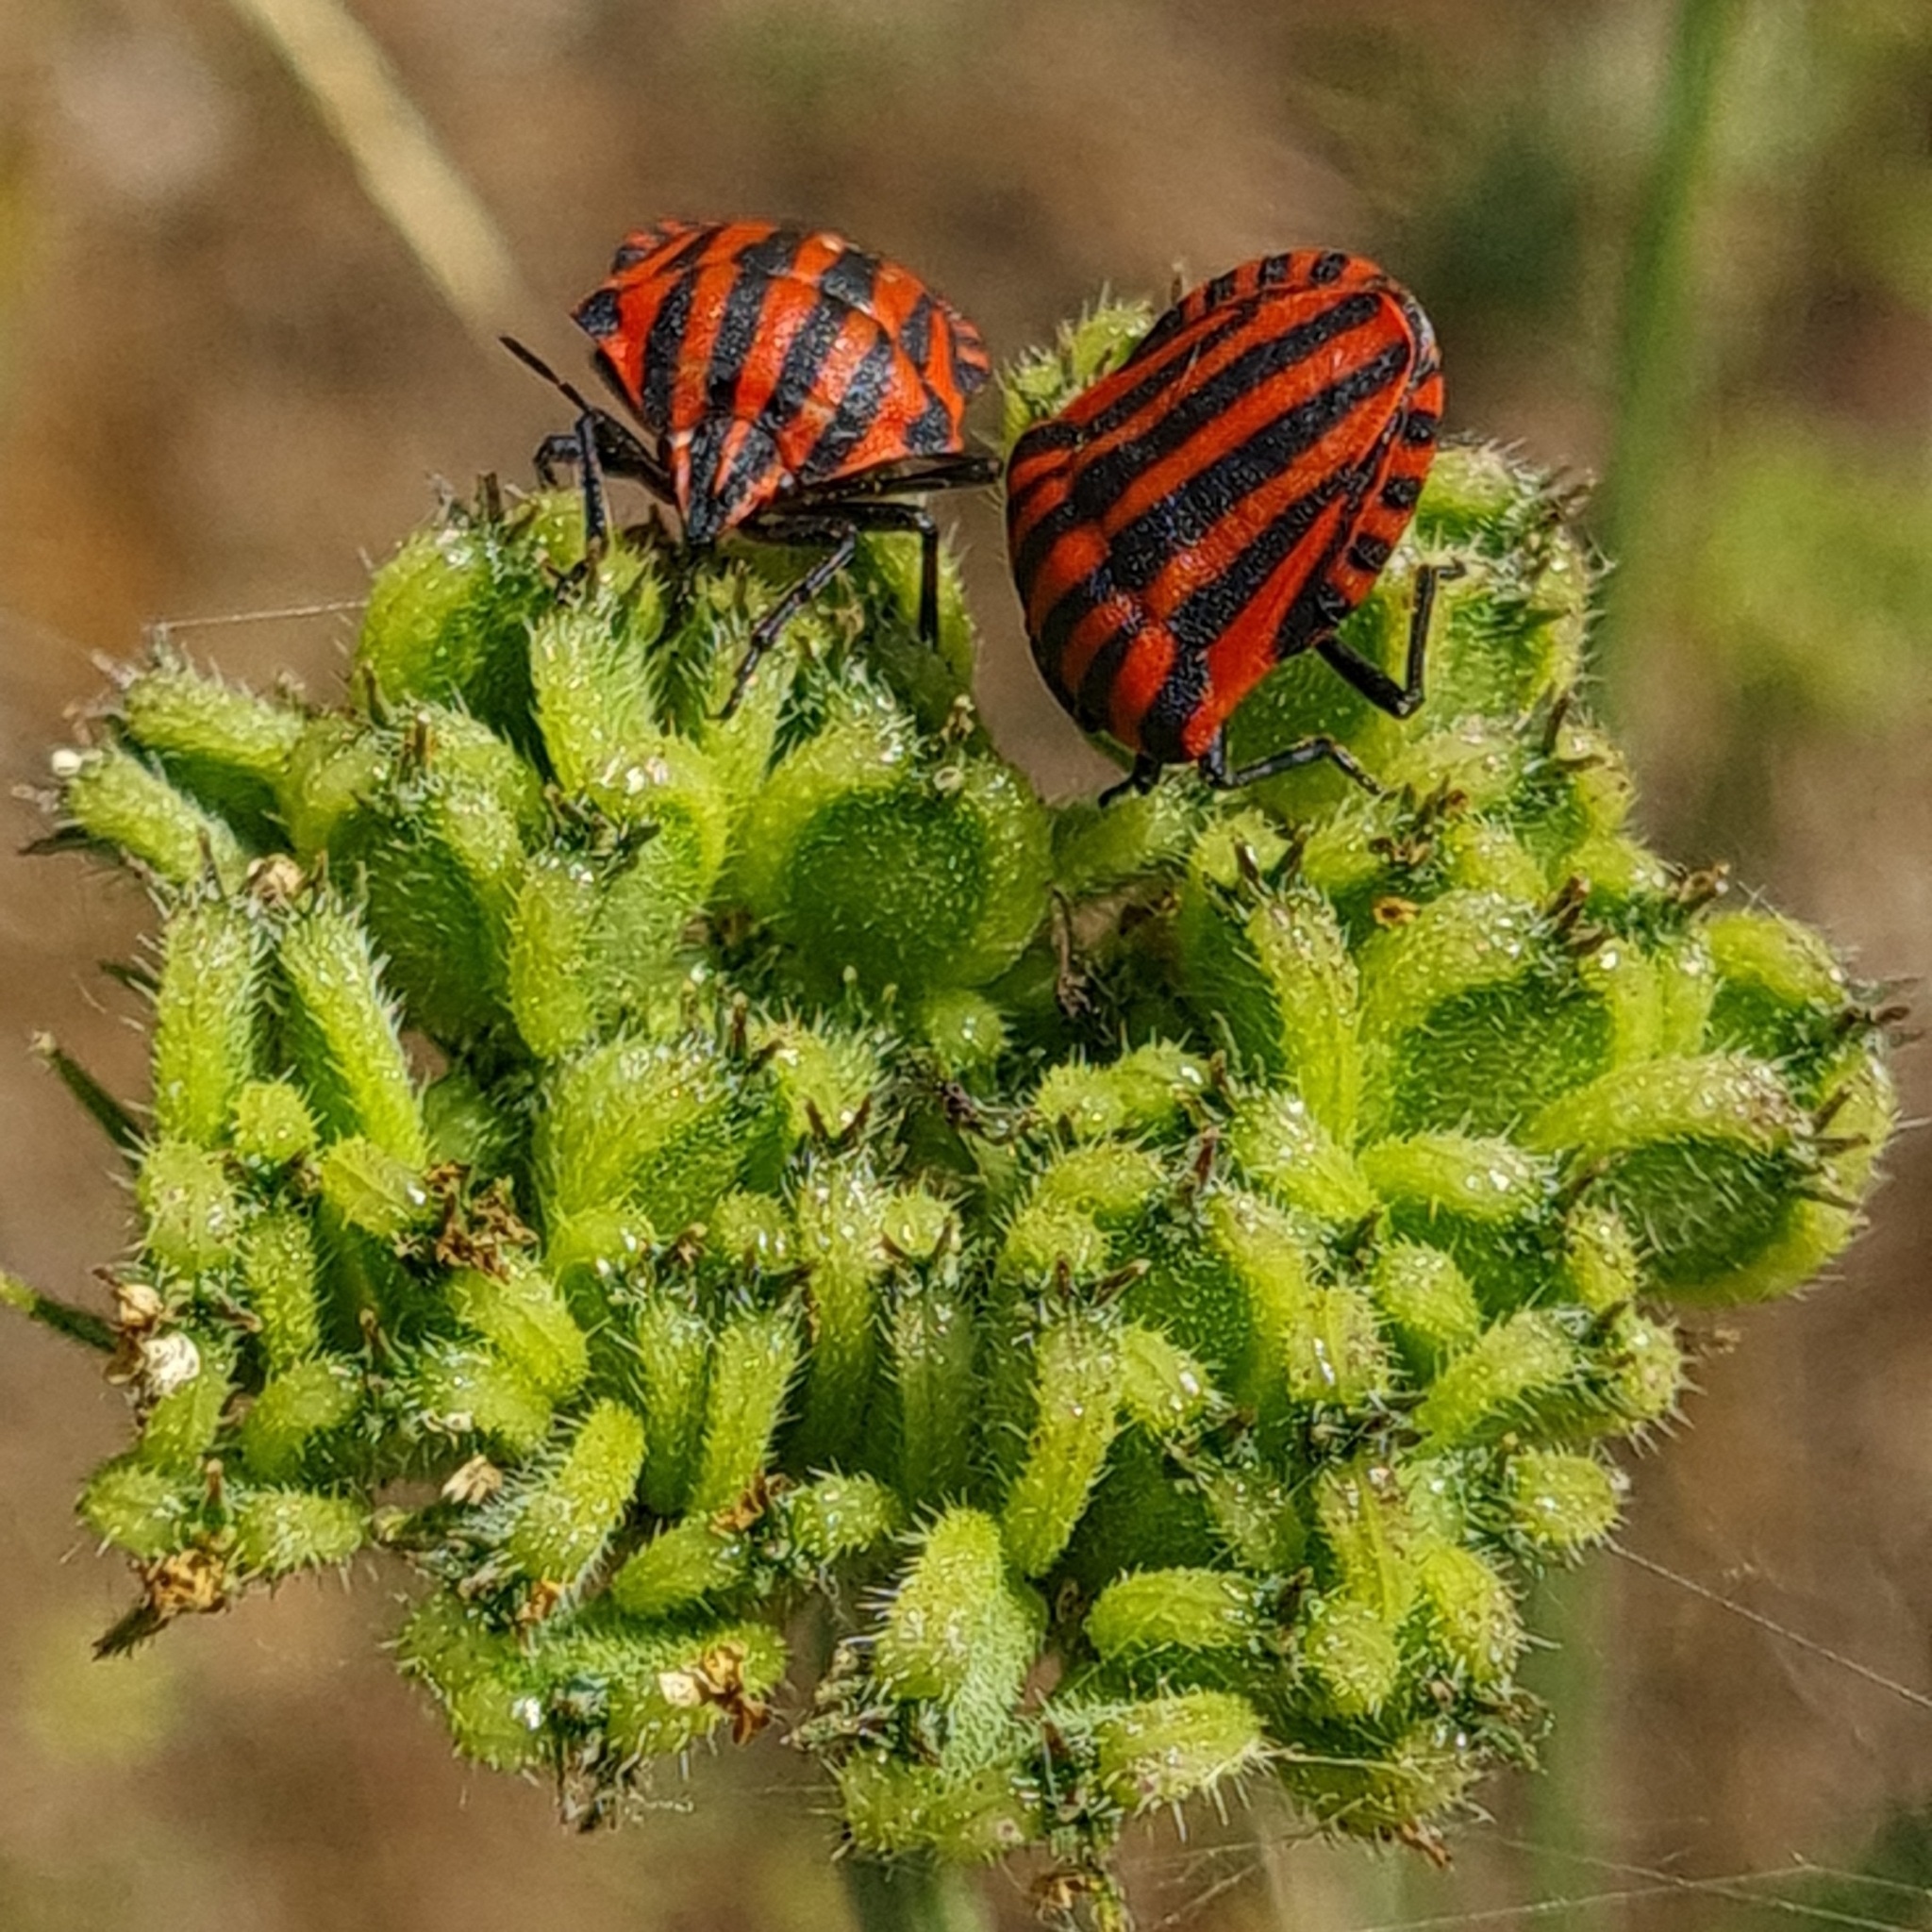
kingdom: Animalia
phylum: Arthropoda
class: Insecta
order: Hemiptera
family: Pentatomidae
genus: Graphosoma
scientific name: Graphosoma italicum
